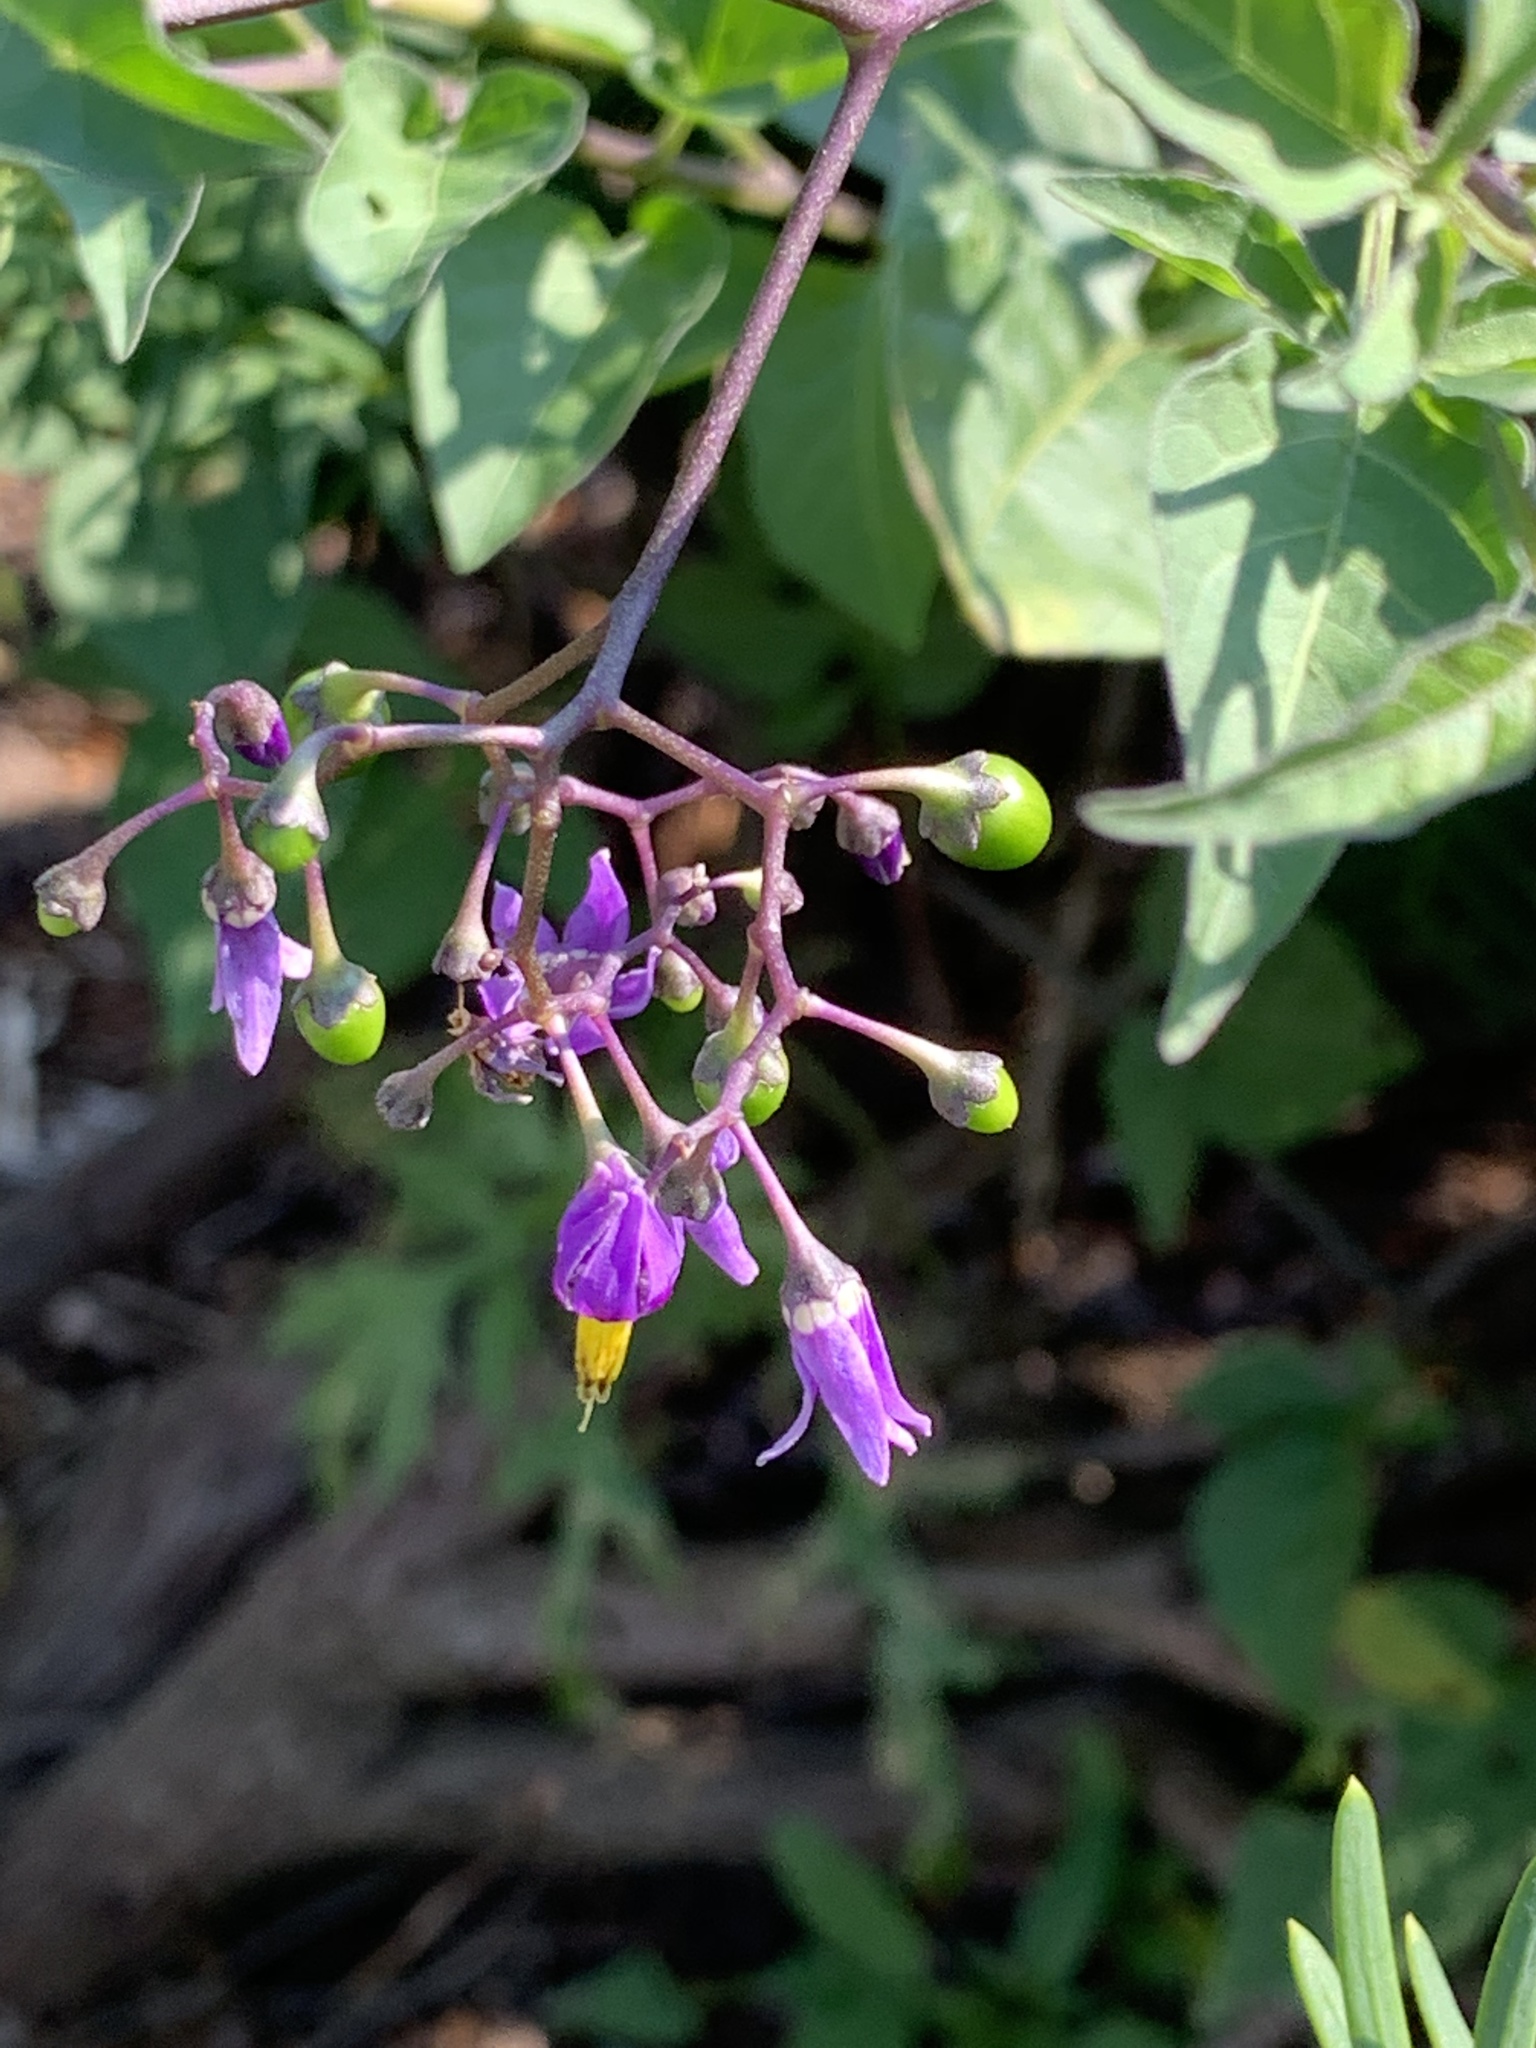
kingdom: Plantae
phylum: Tracheophyta
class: Magnoliopsida
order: Solanales
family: Solanaceae
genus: Solanum
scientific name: Solanum dulcamara
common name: Climbing nightshade
